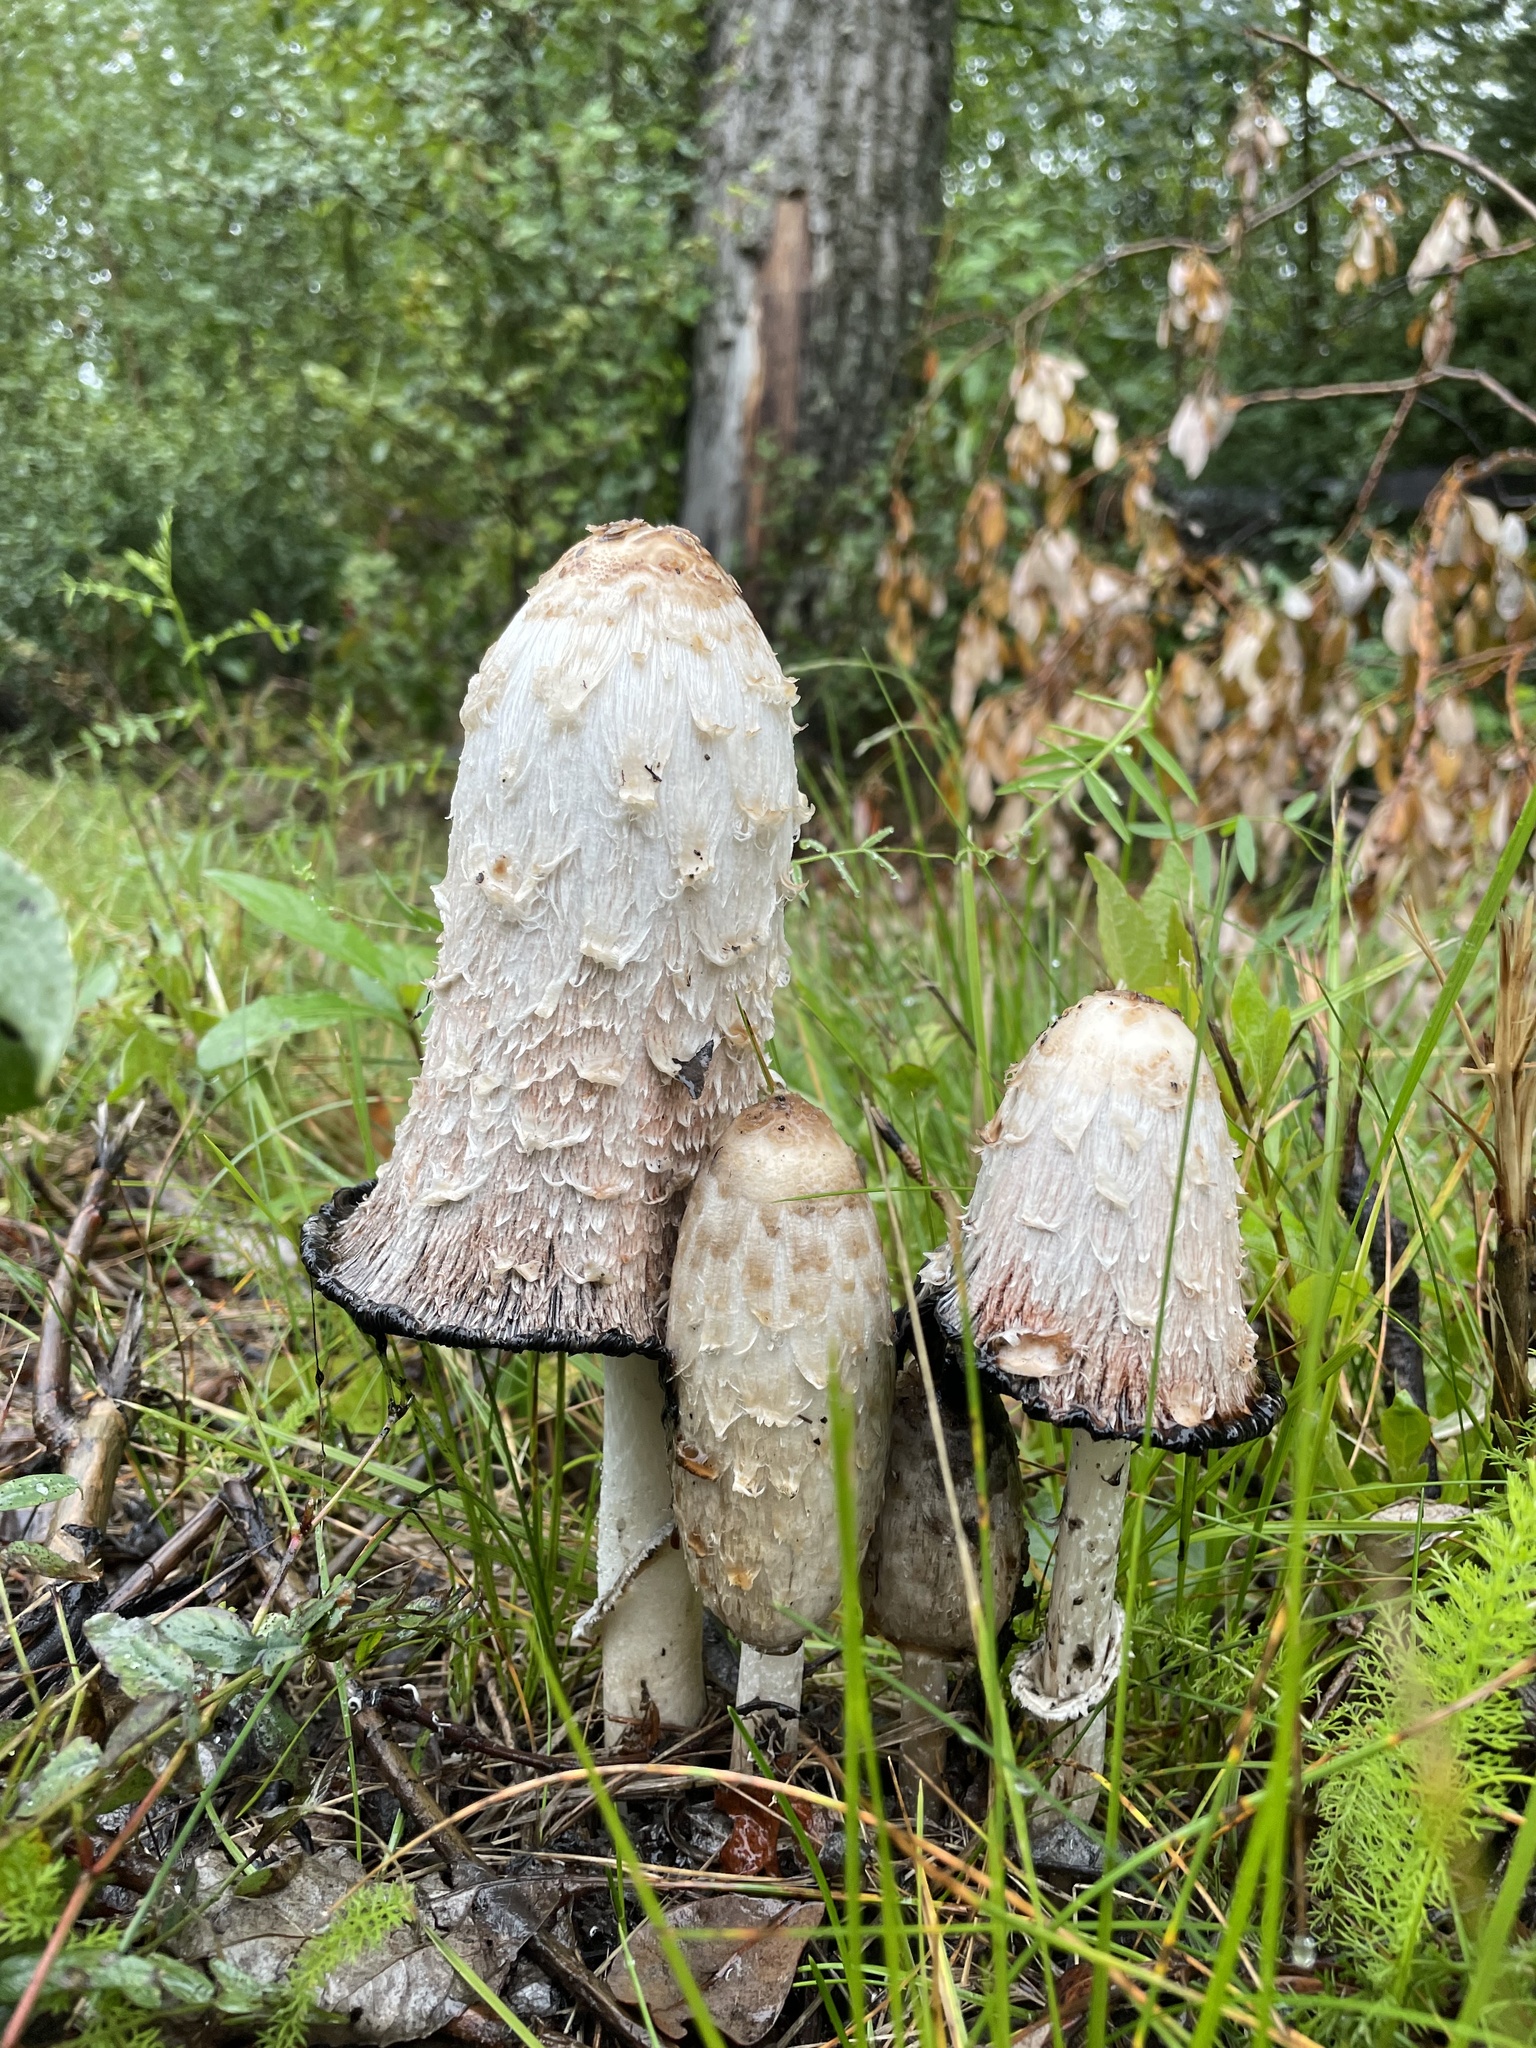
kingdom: Fungi
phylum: Basidiomycota
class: Agaricomycetes
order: Agaricales
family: Agaricaceae
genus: Coprinus
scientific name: Coprinus comatus
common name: Lawyer's wig
